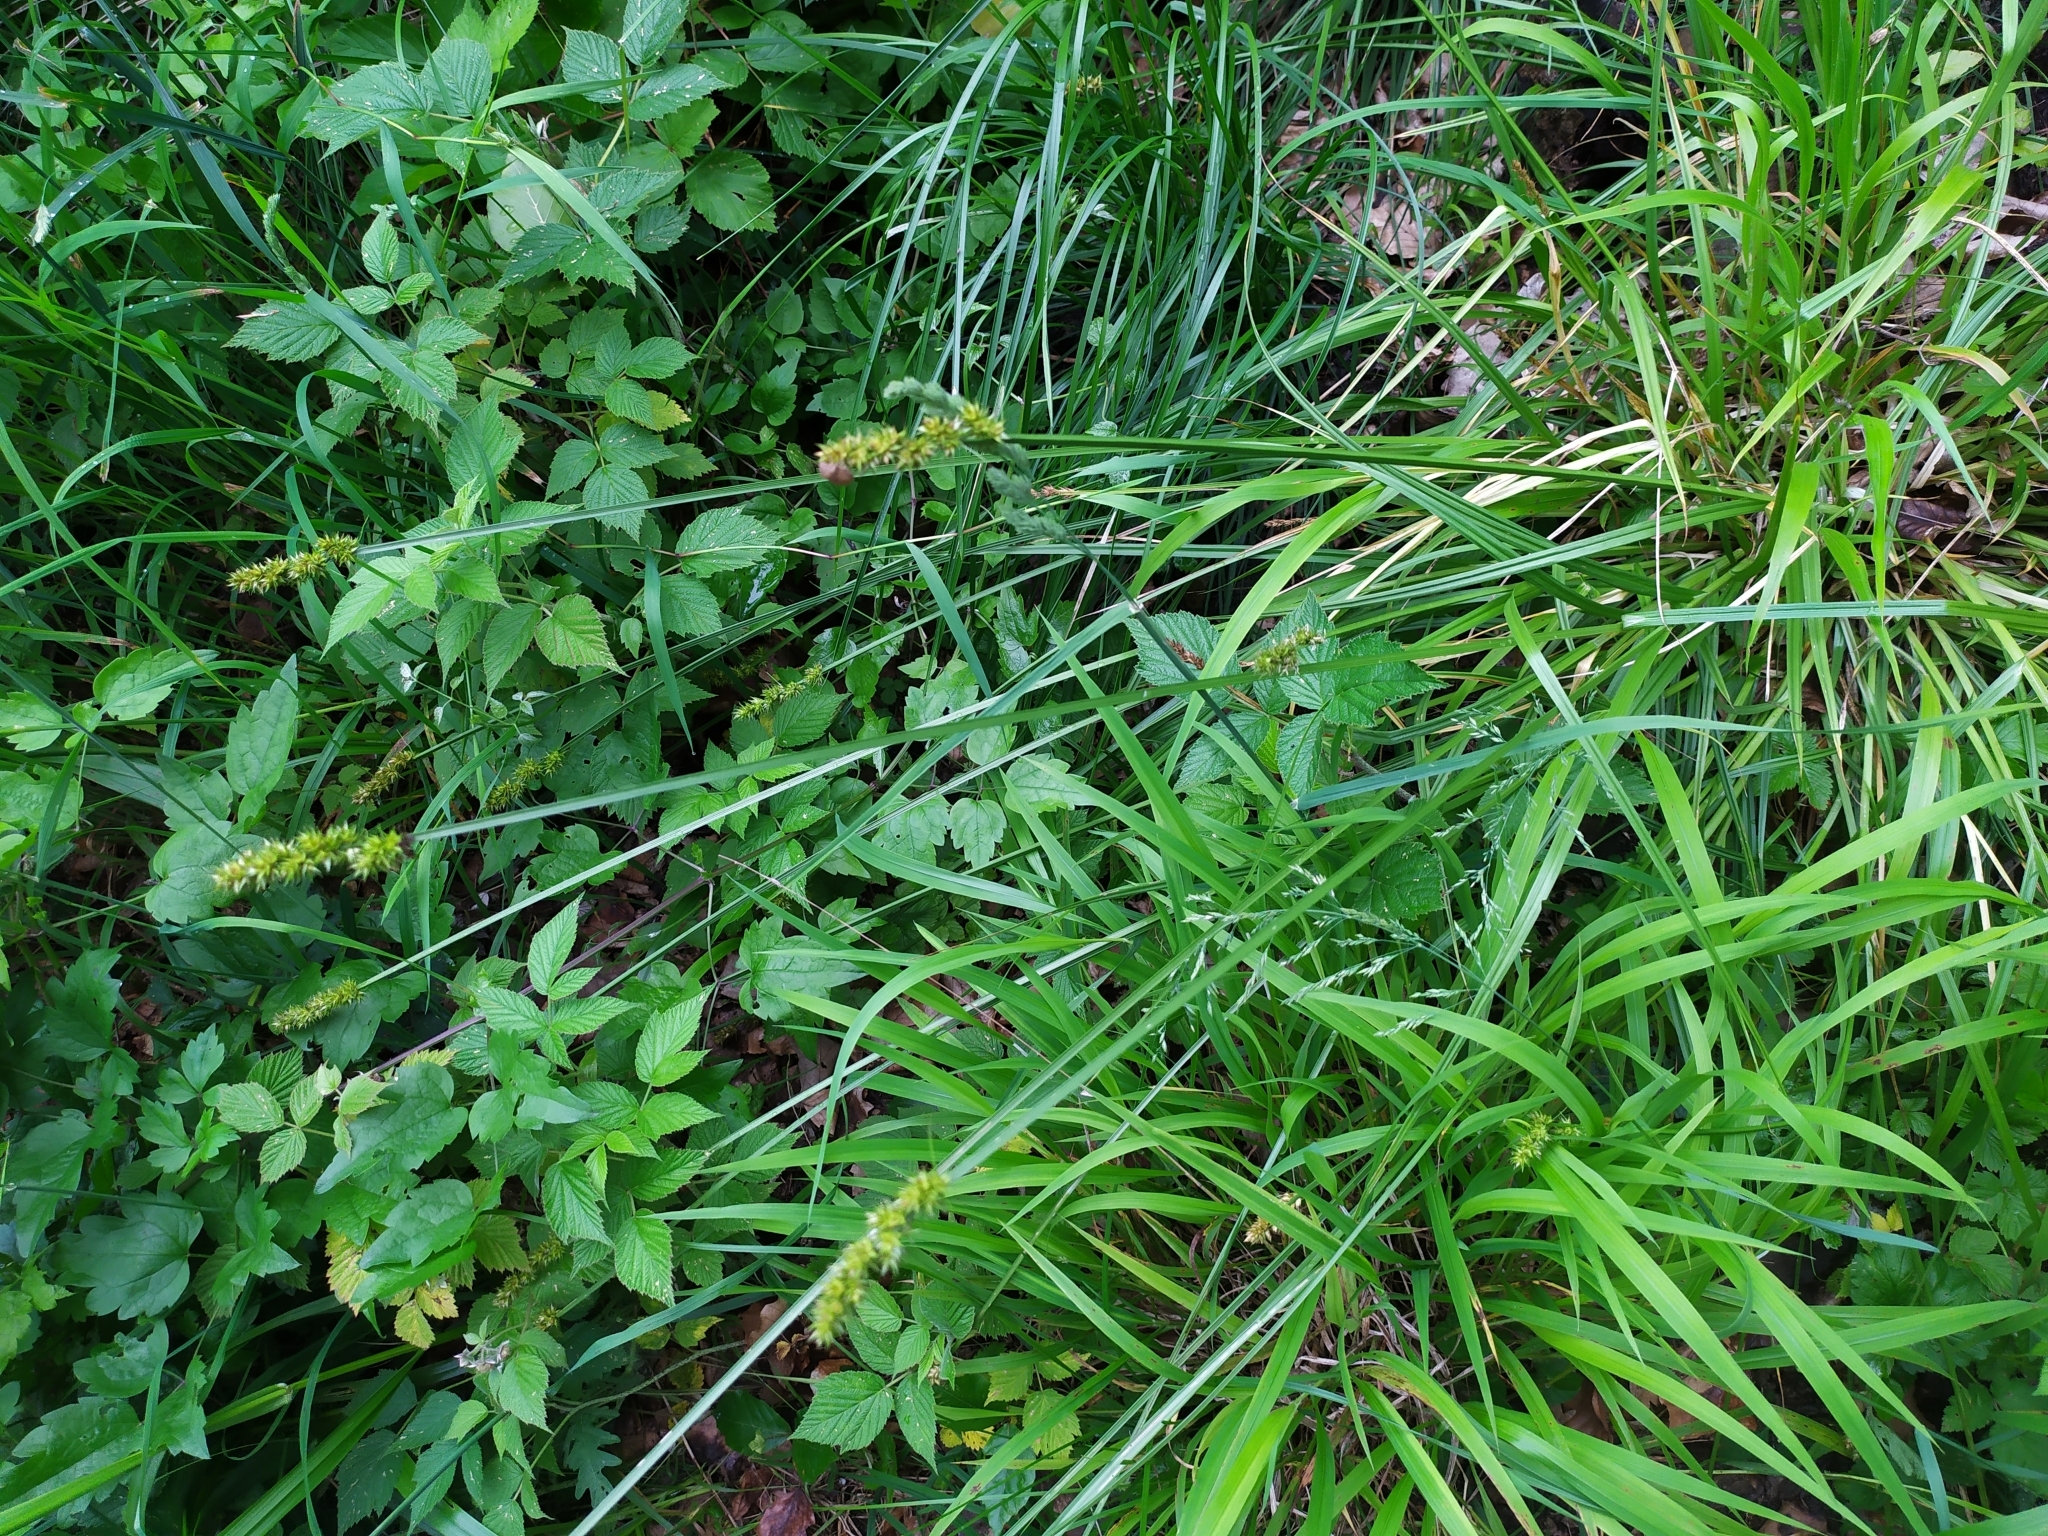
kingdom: Plantae
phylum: Tracheophyta
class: Liliopsida
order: Poales
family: Cyperaceae
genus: Carex
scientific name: Carex otrubae
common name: False fox-sedge
